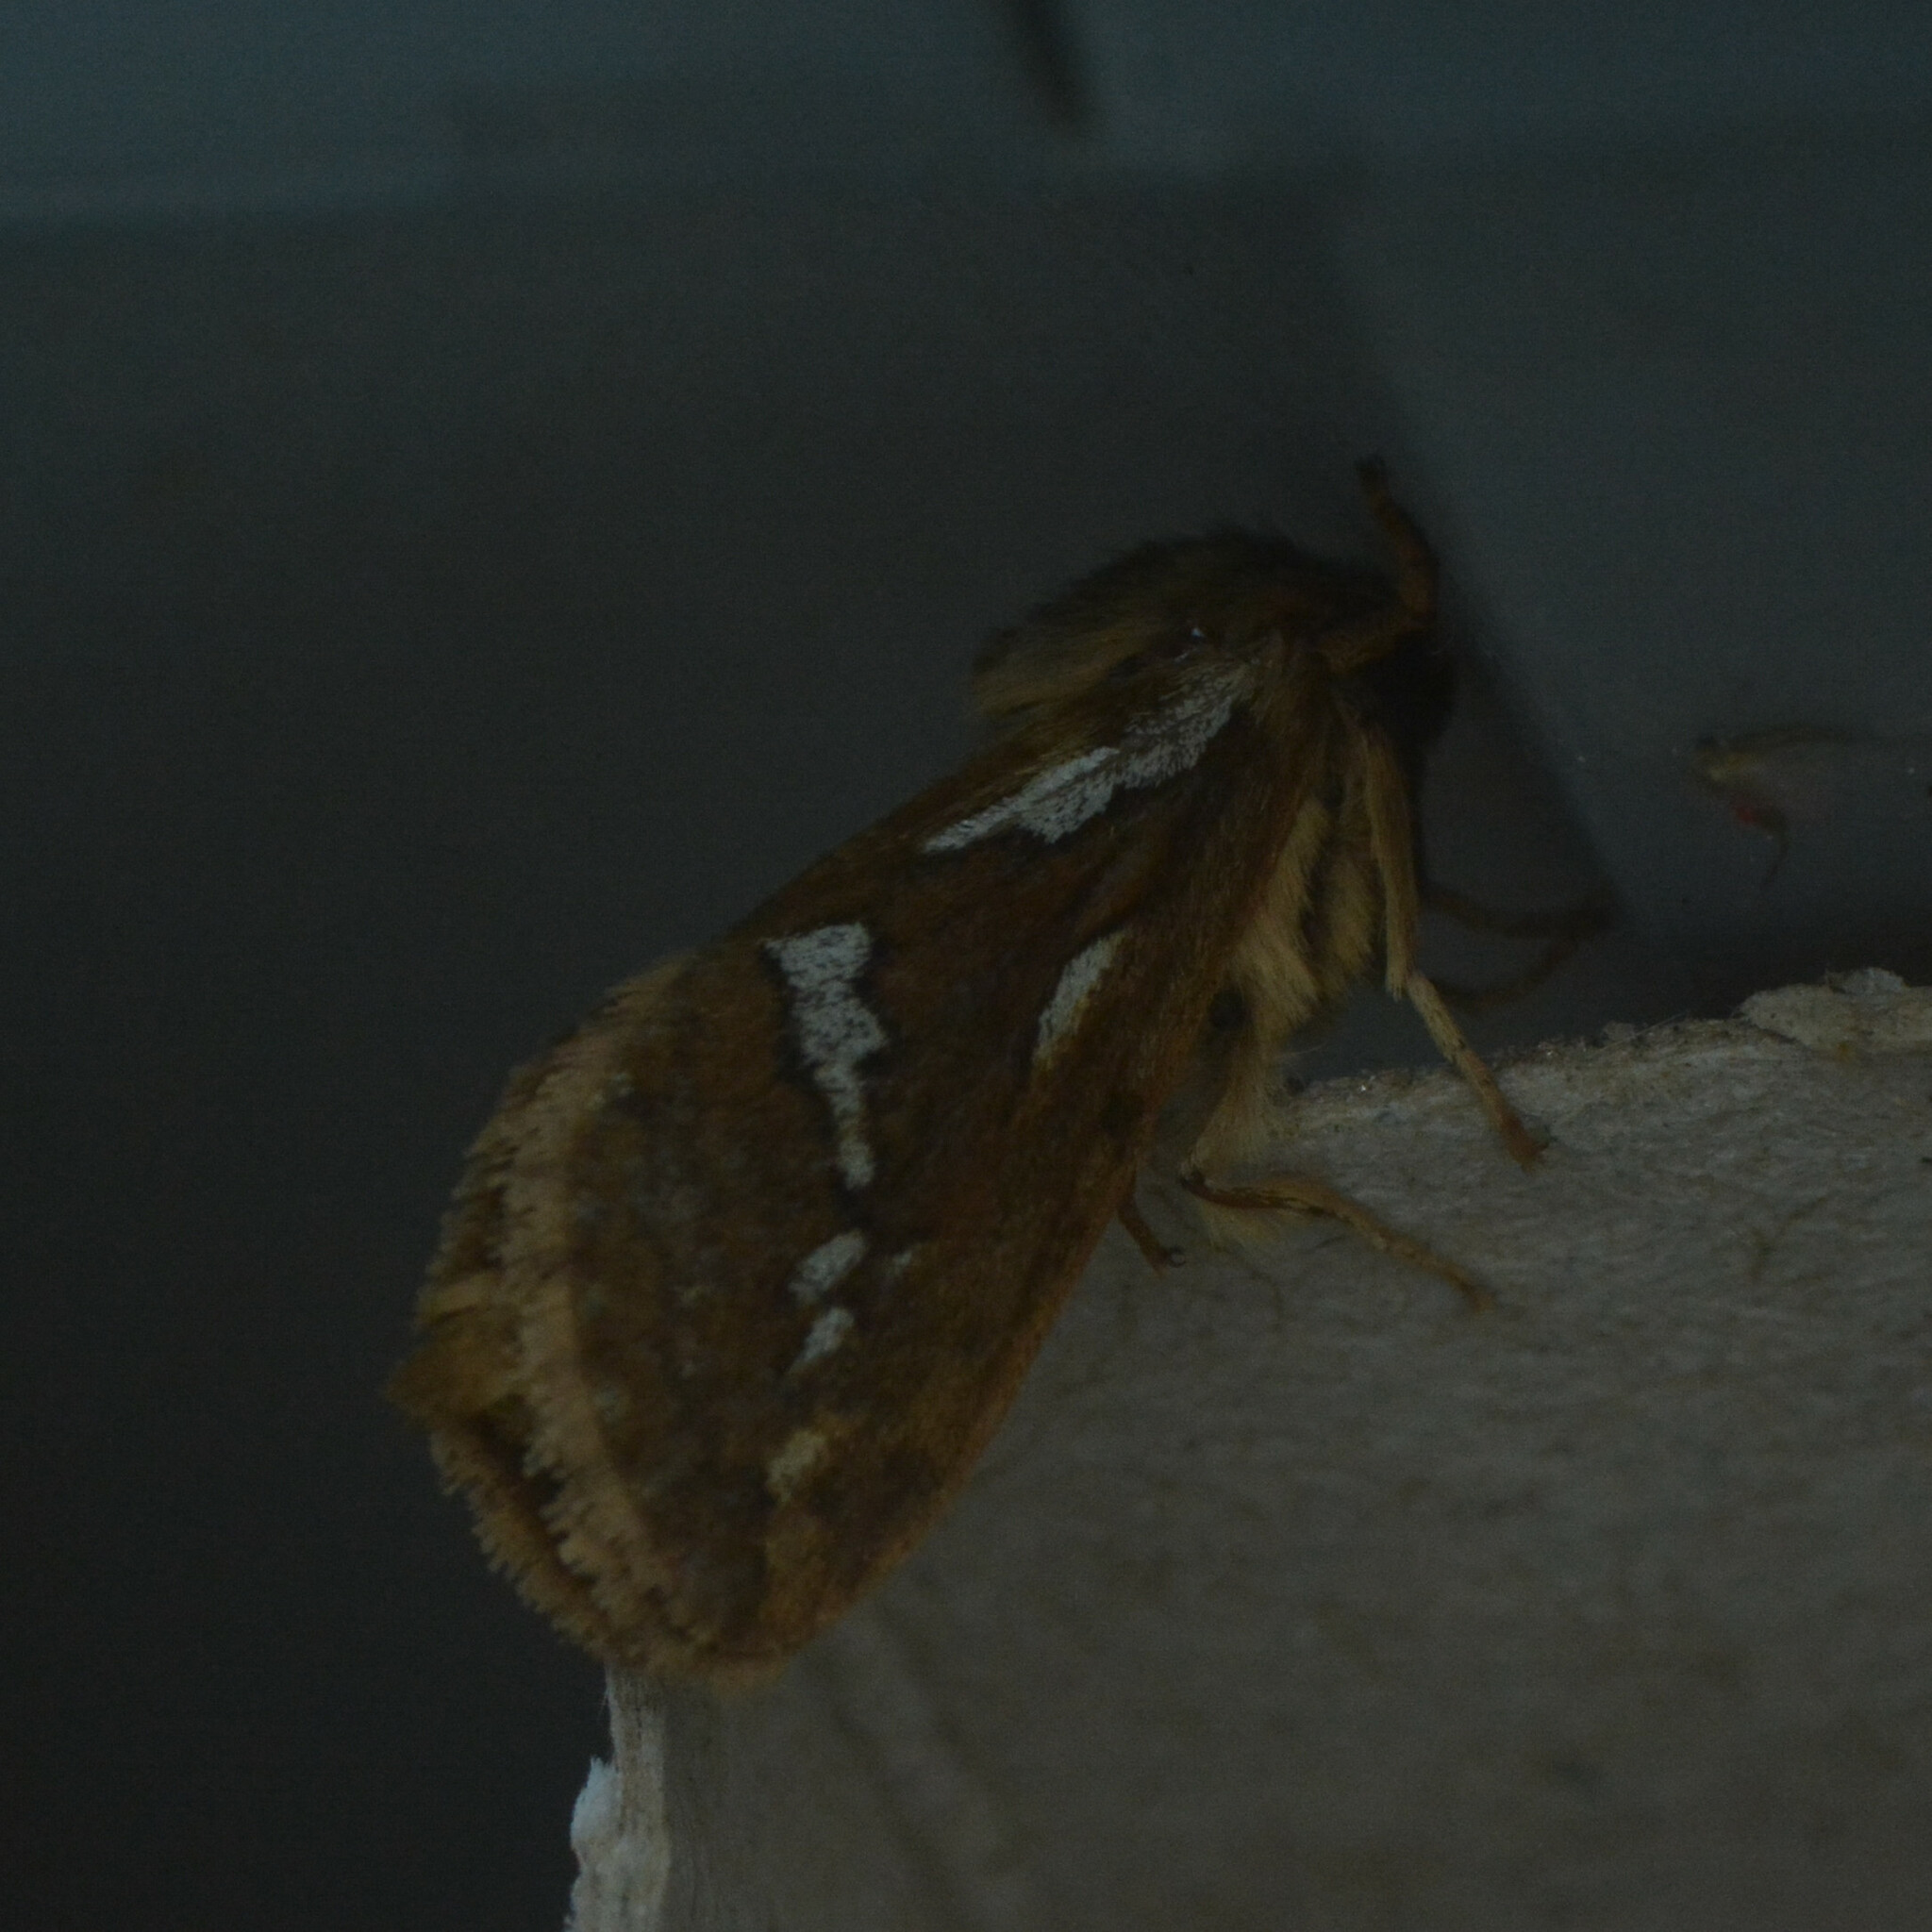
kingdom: Animalia
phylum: Arthropoda
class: Insecta
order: Lepidoptera
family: Hepialidae
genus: Korscheltellus
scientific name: Korscheltellus lupulina
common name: Common swift
